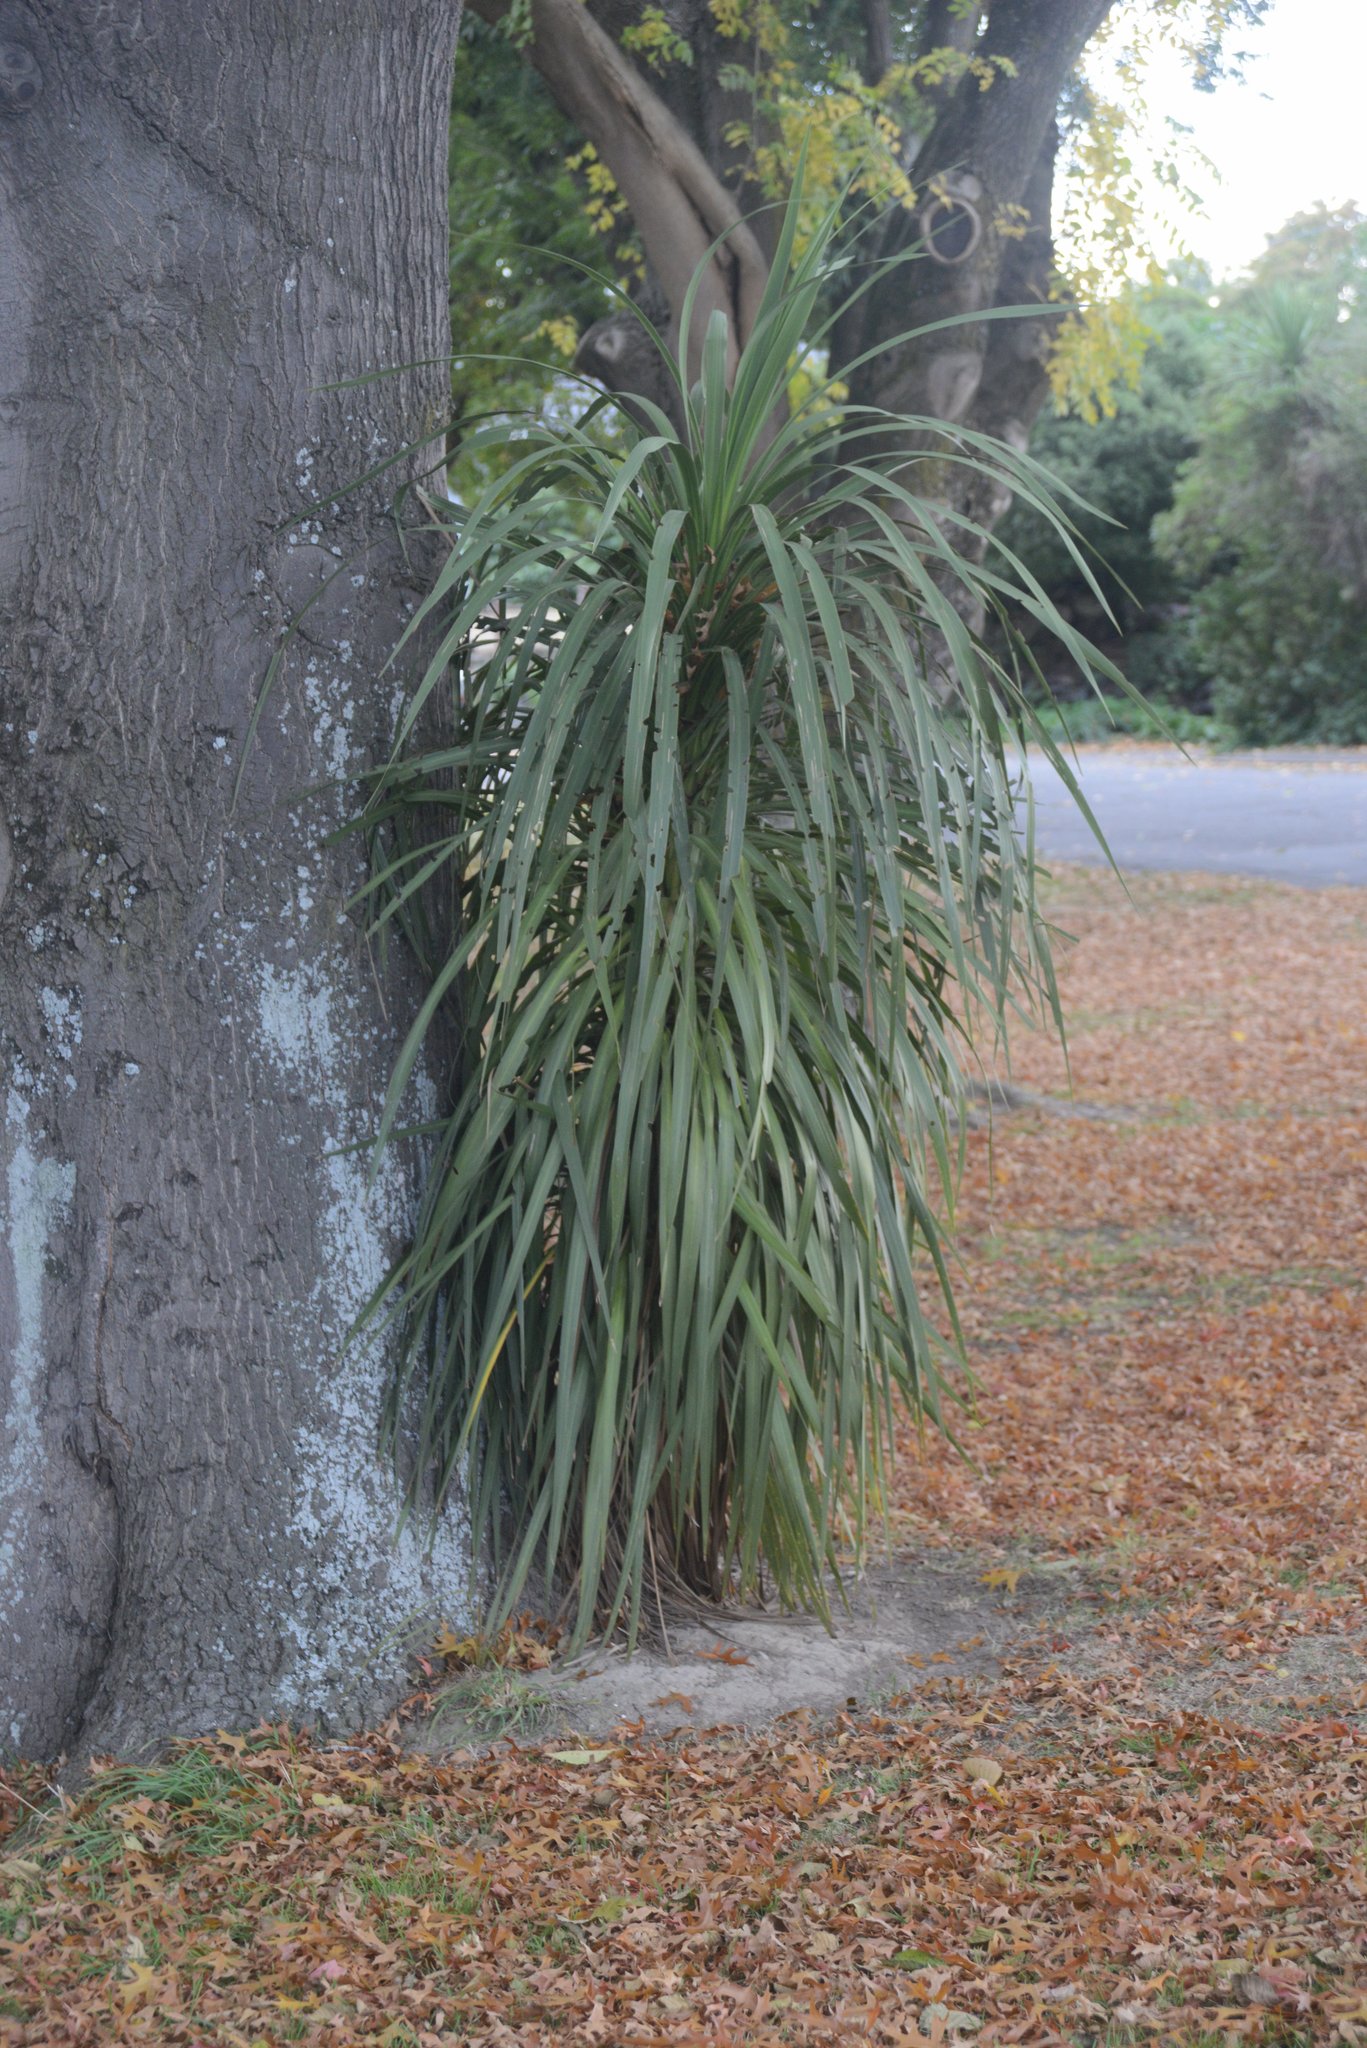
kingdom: Plantae
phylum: Tracheophyta
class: Liliopsida
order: Asparagales
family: Asparagaceae
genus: Cordyline
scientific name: Cordyline australis
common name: Cabbage-palm
